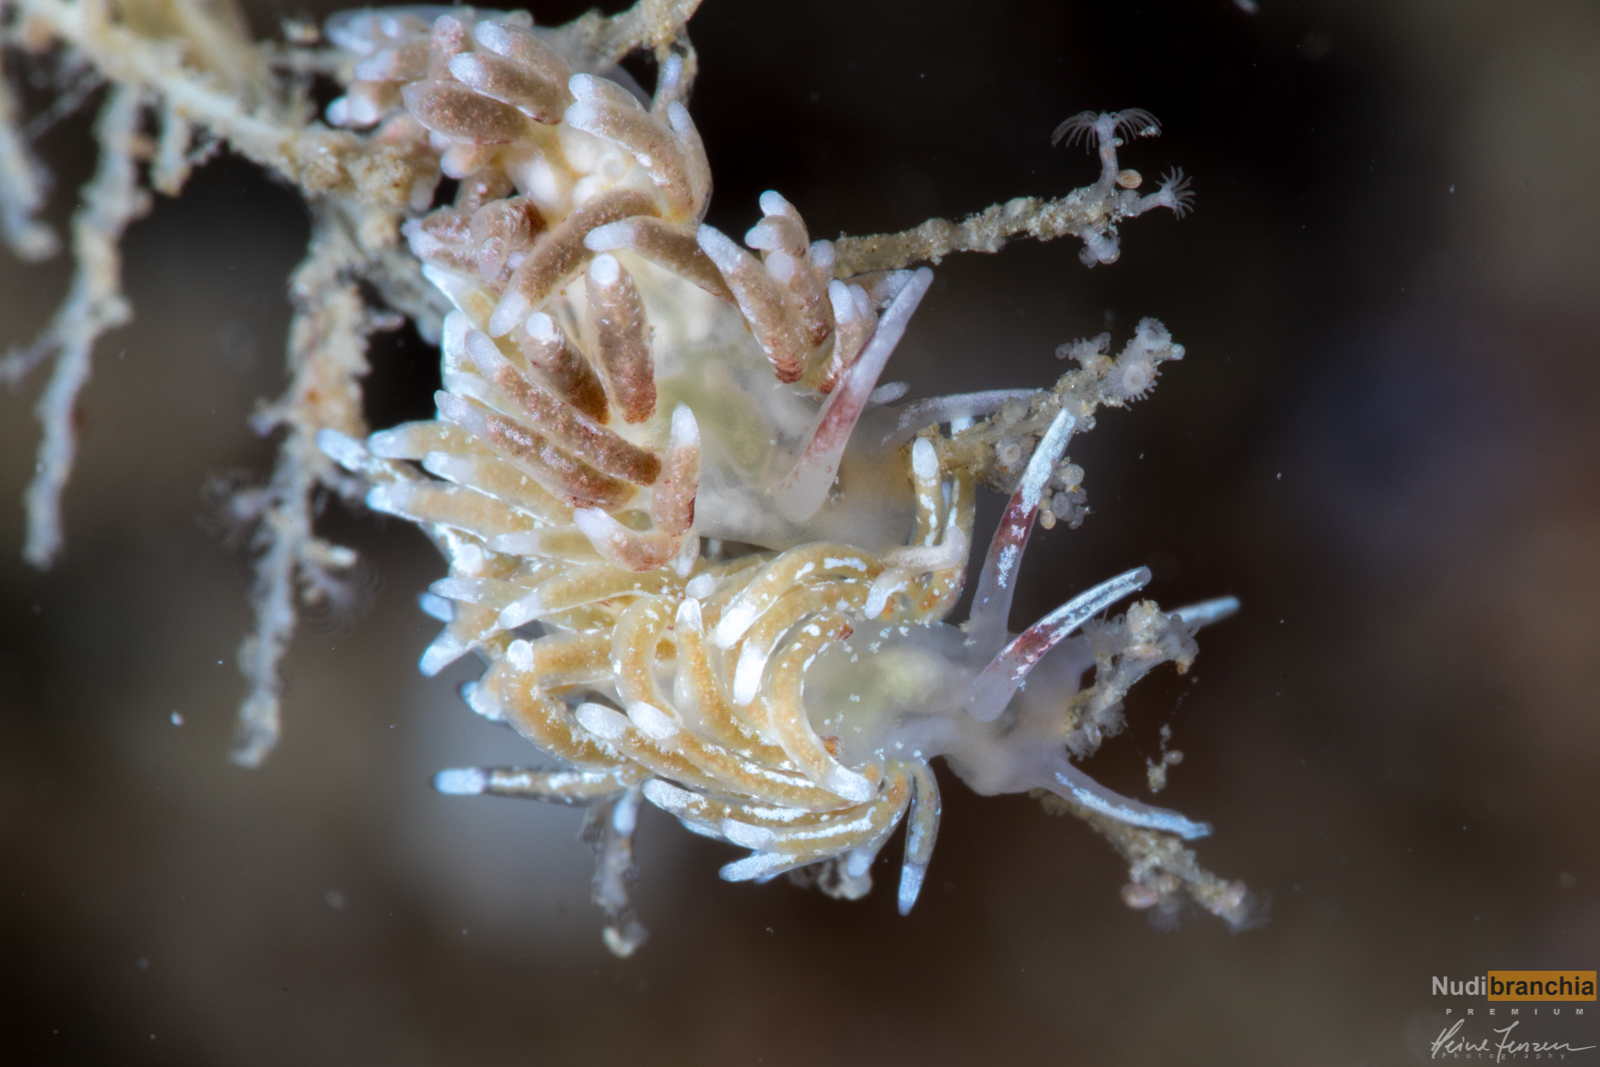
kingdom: Animalia
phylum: Mollusca
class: Gastropoda
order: Nudibranchia
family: Trinchesiidae
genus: Rubramoena
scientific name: Rubramoena rubescens
